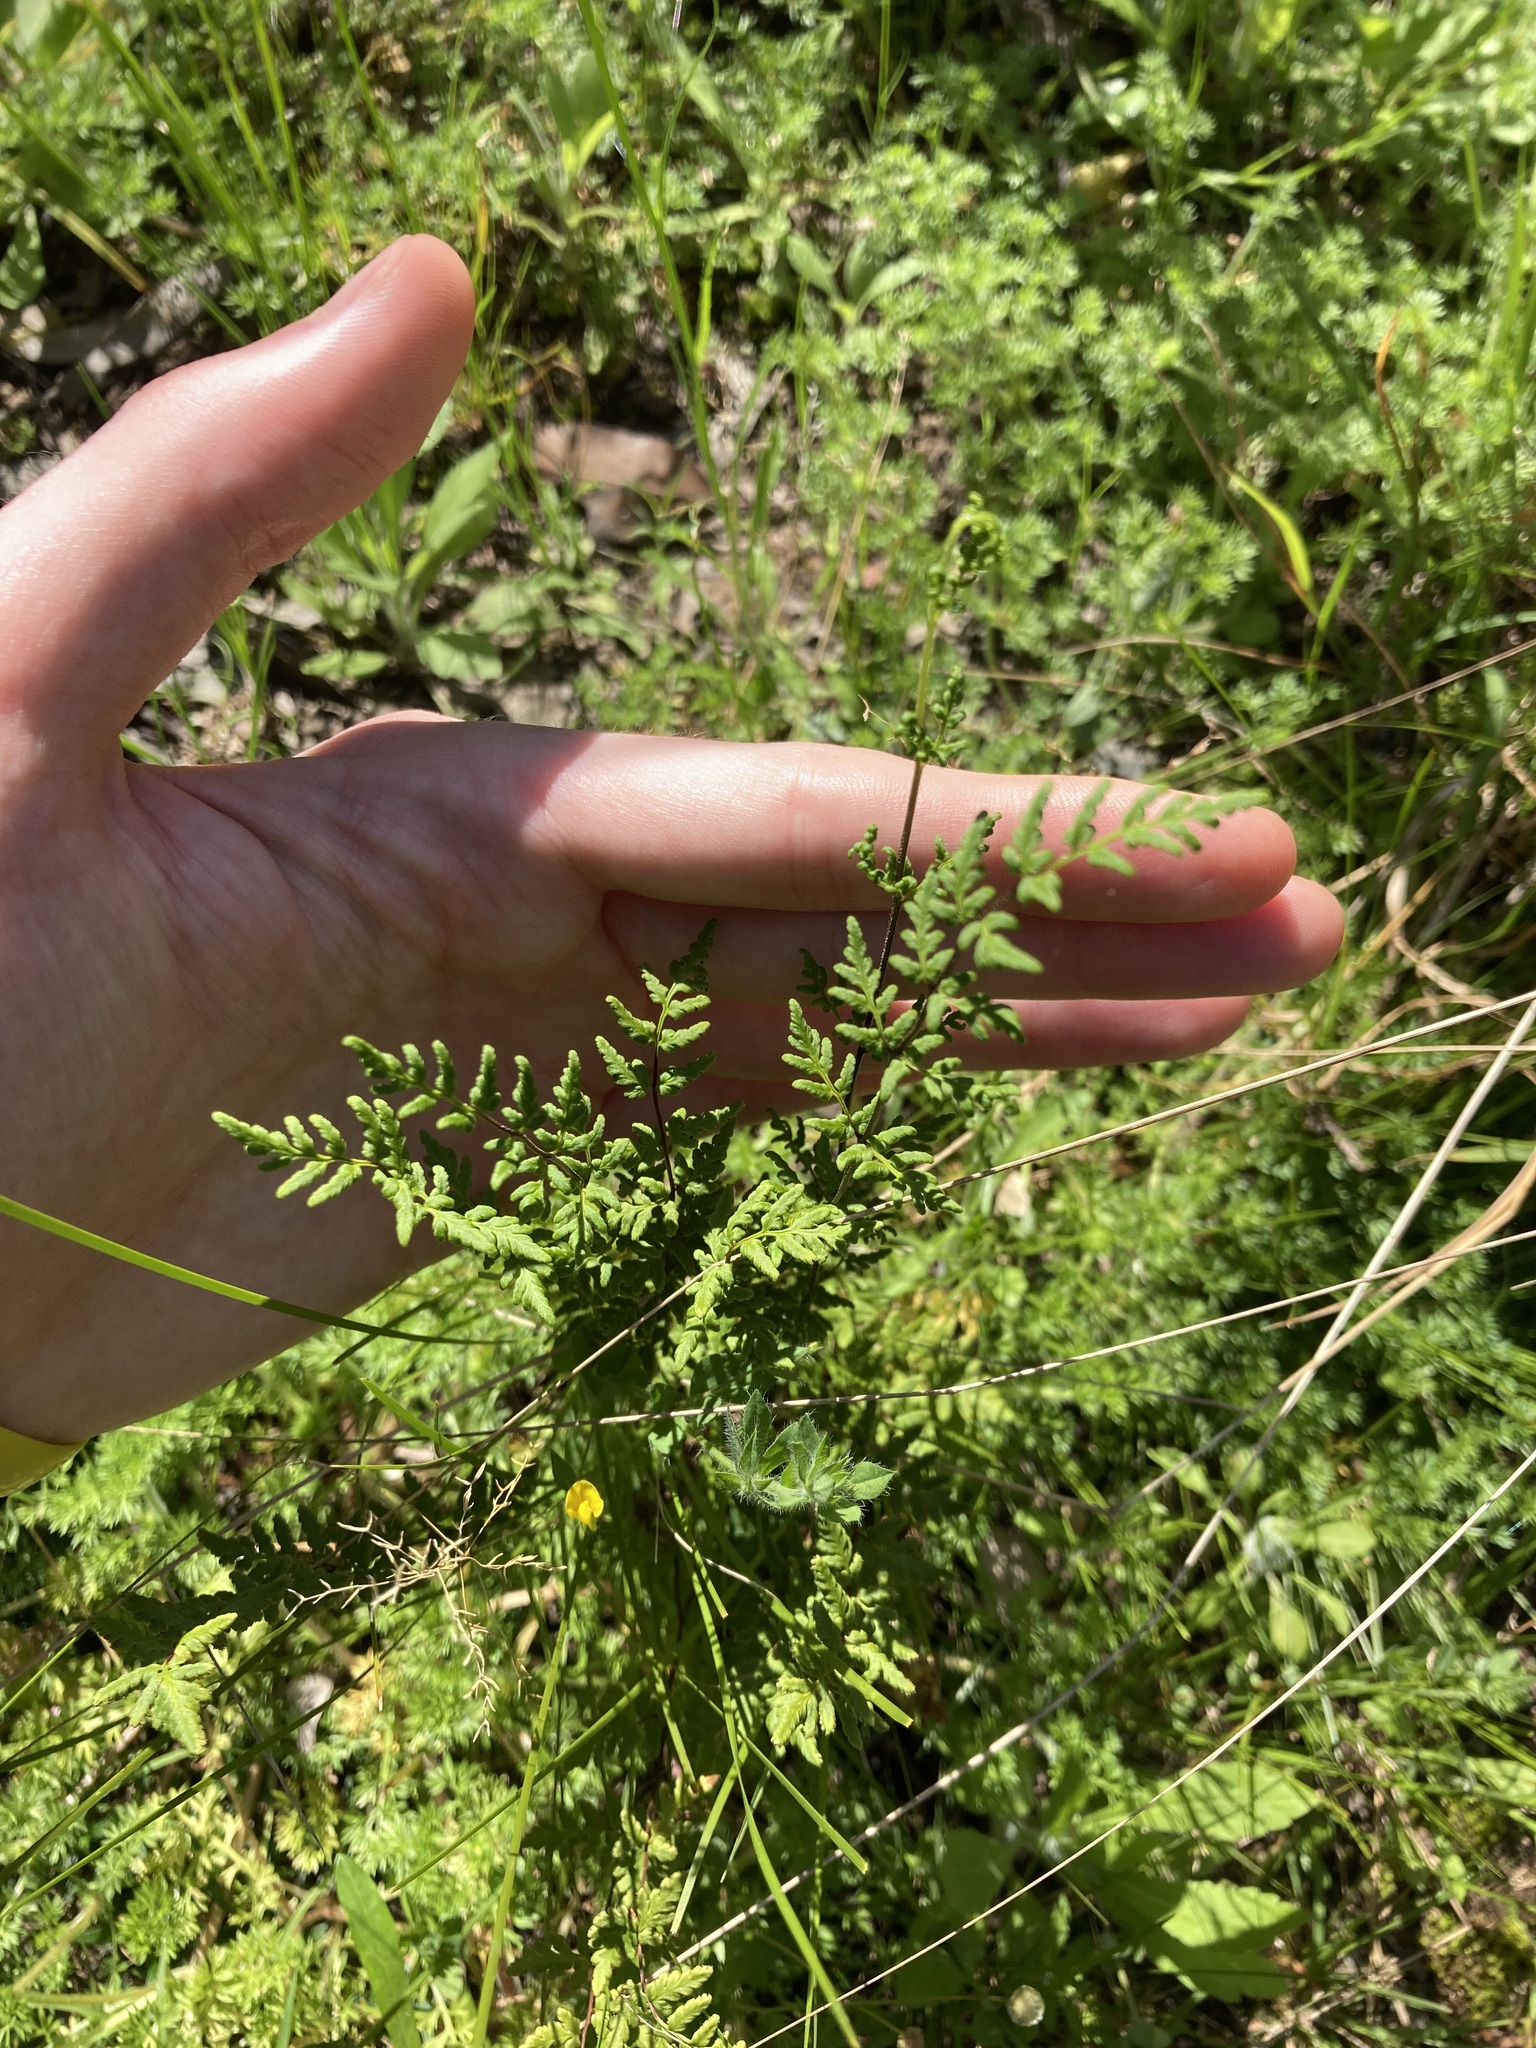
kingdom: Plantae
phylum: Tracheophyta
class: Polypodiopsida
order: Polypodiales
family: Pteridaceae
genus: Cheilanthes
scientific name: Cheilanthes sieberi
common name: Mulga fern
